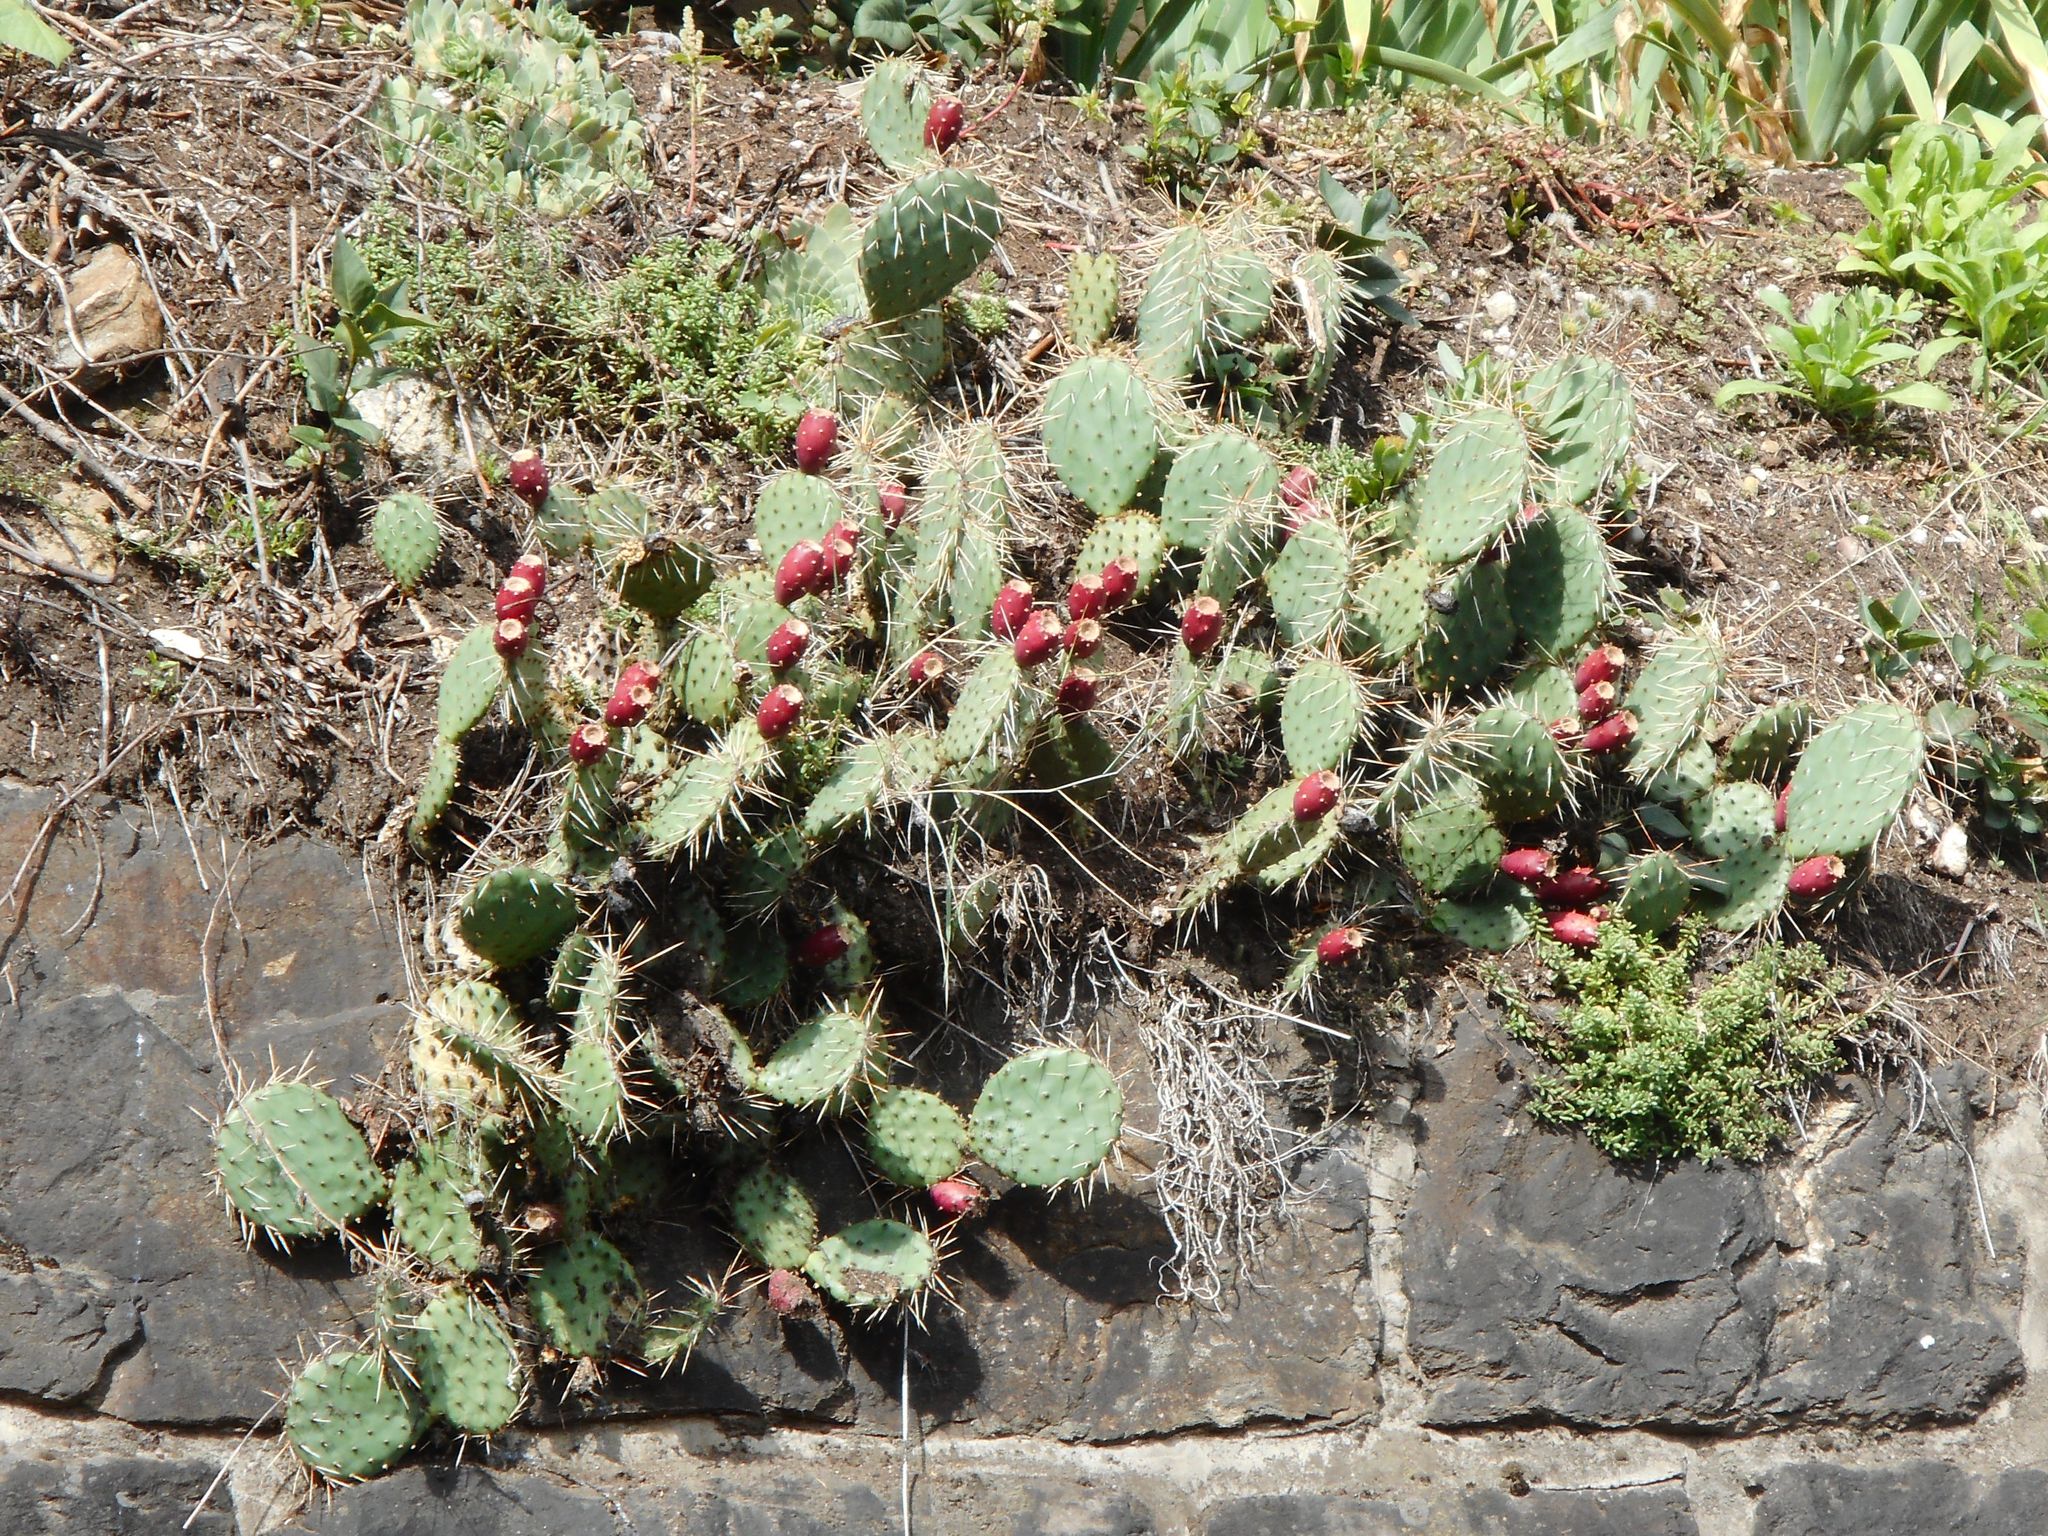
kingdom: Plantae
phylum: Tracheophyta
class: Magnoliopsida
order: Caryophyllales
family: Cactaceae
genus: Opuntia
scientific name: Opuntia cymochila
